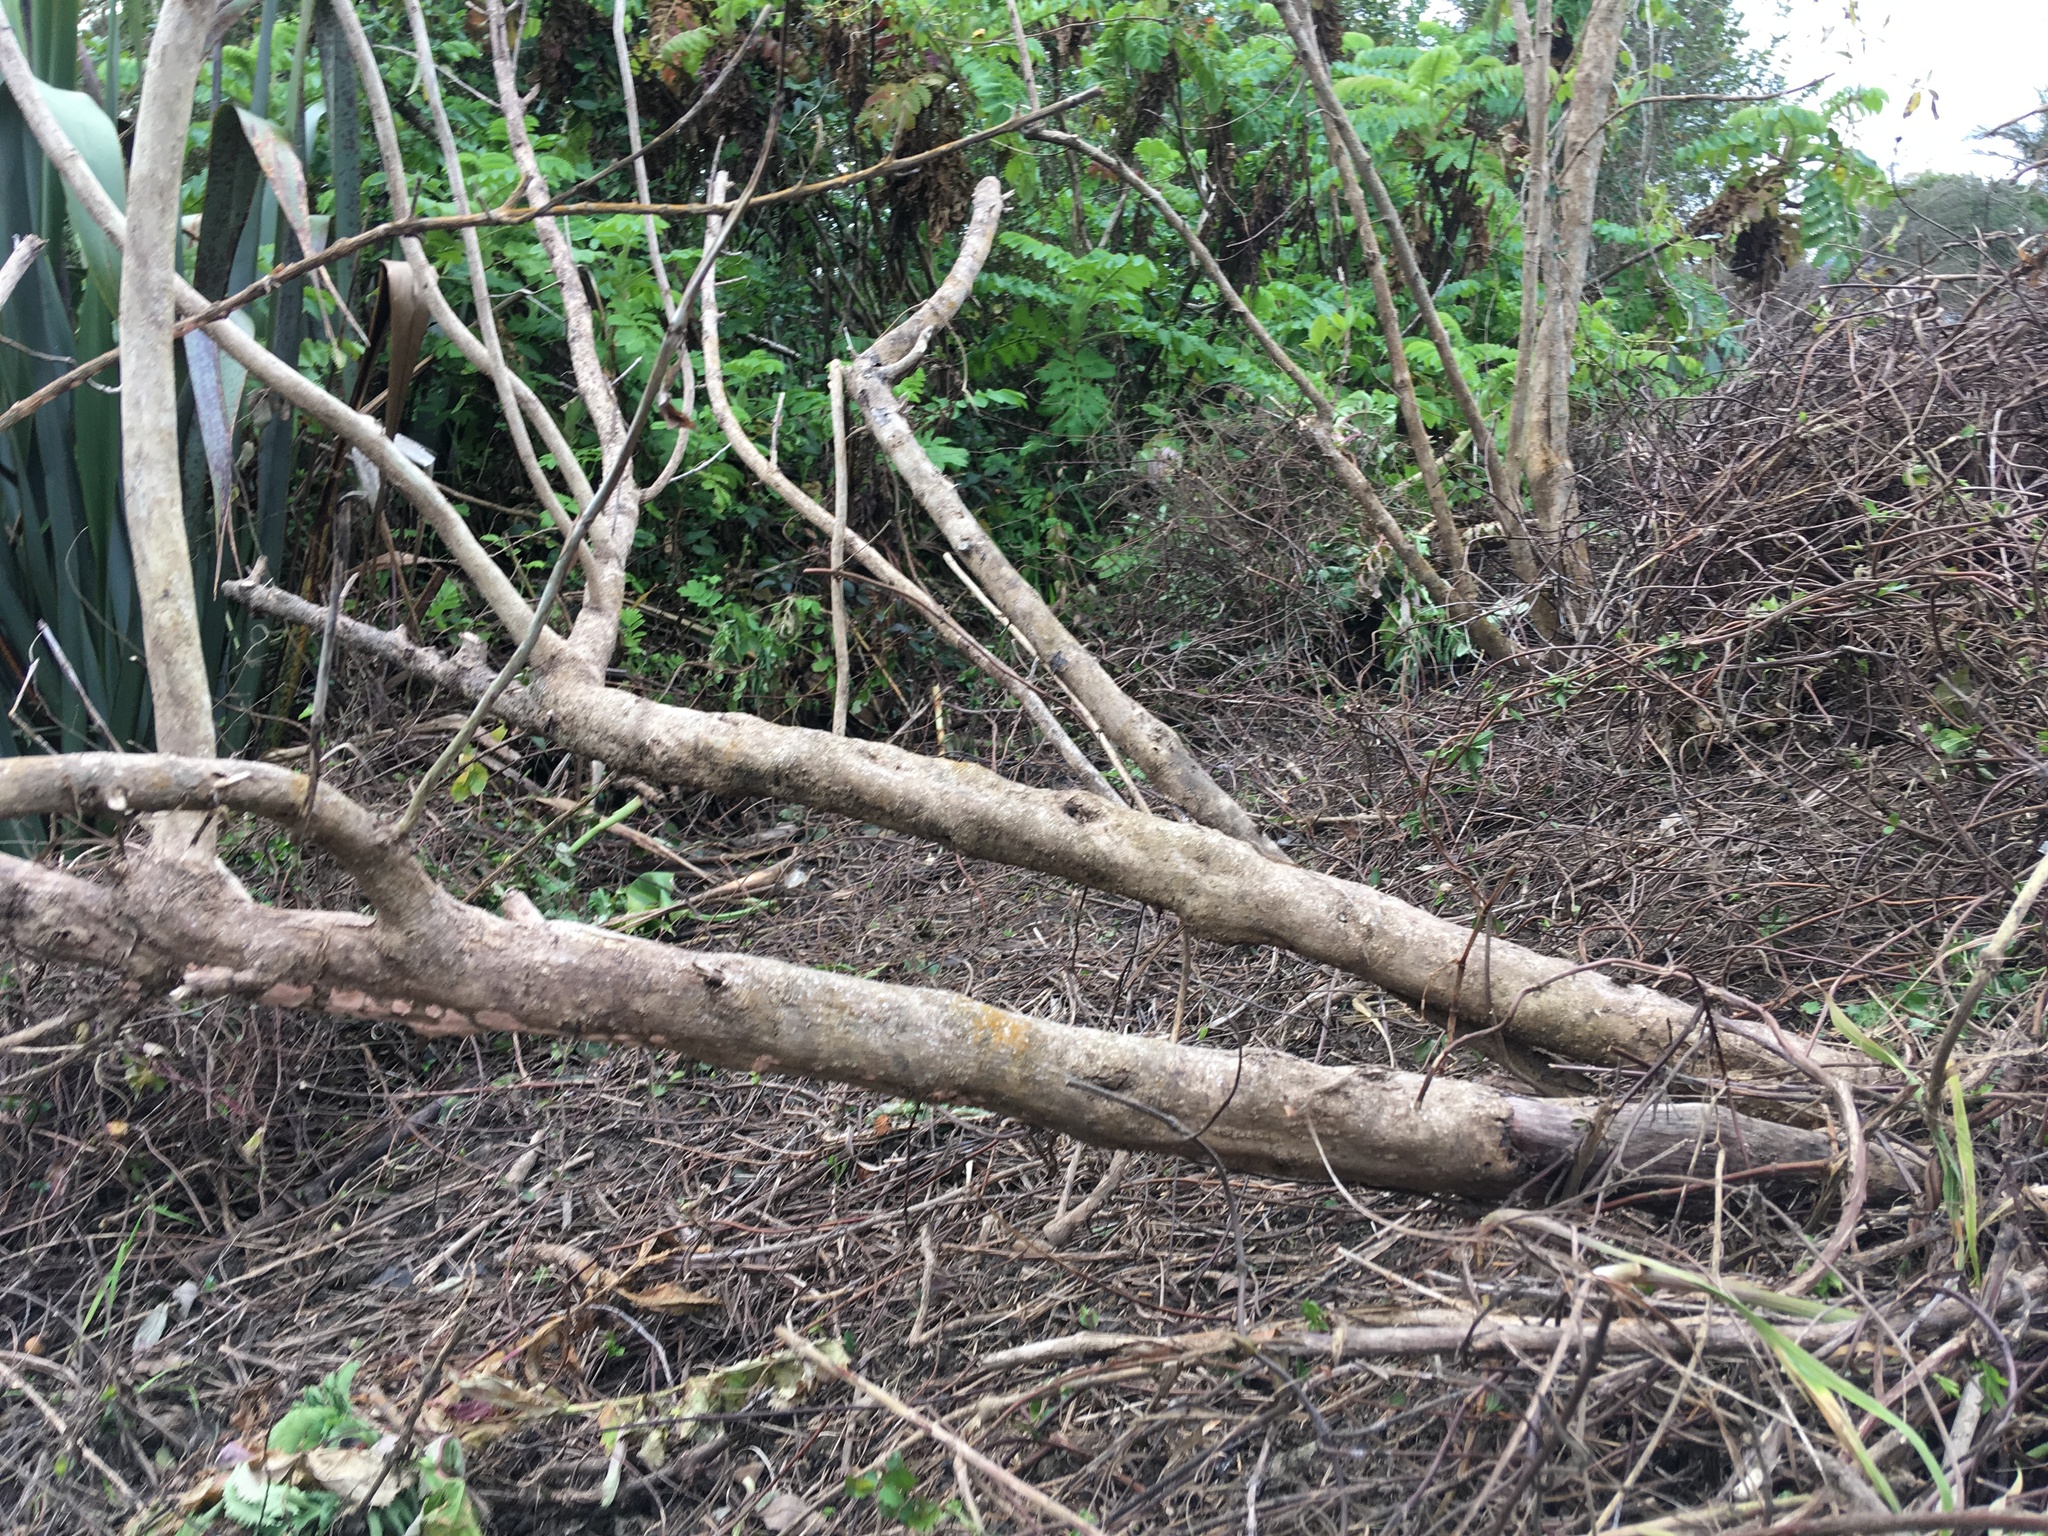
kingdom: Plantae
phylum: Tracheophyta
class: Magnoliopsida
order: Geraniales
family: Melianthaceae
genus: Melianthus
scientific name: Melianthus major
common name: Honey-flower
